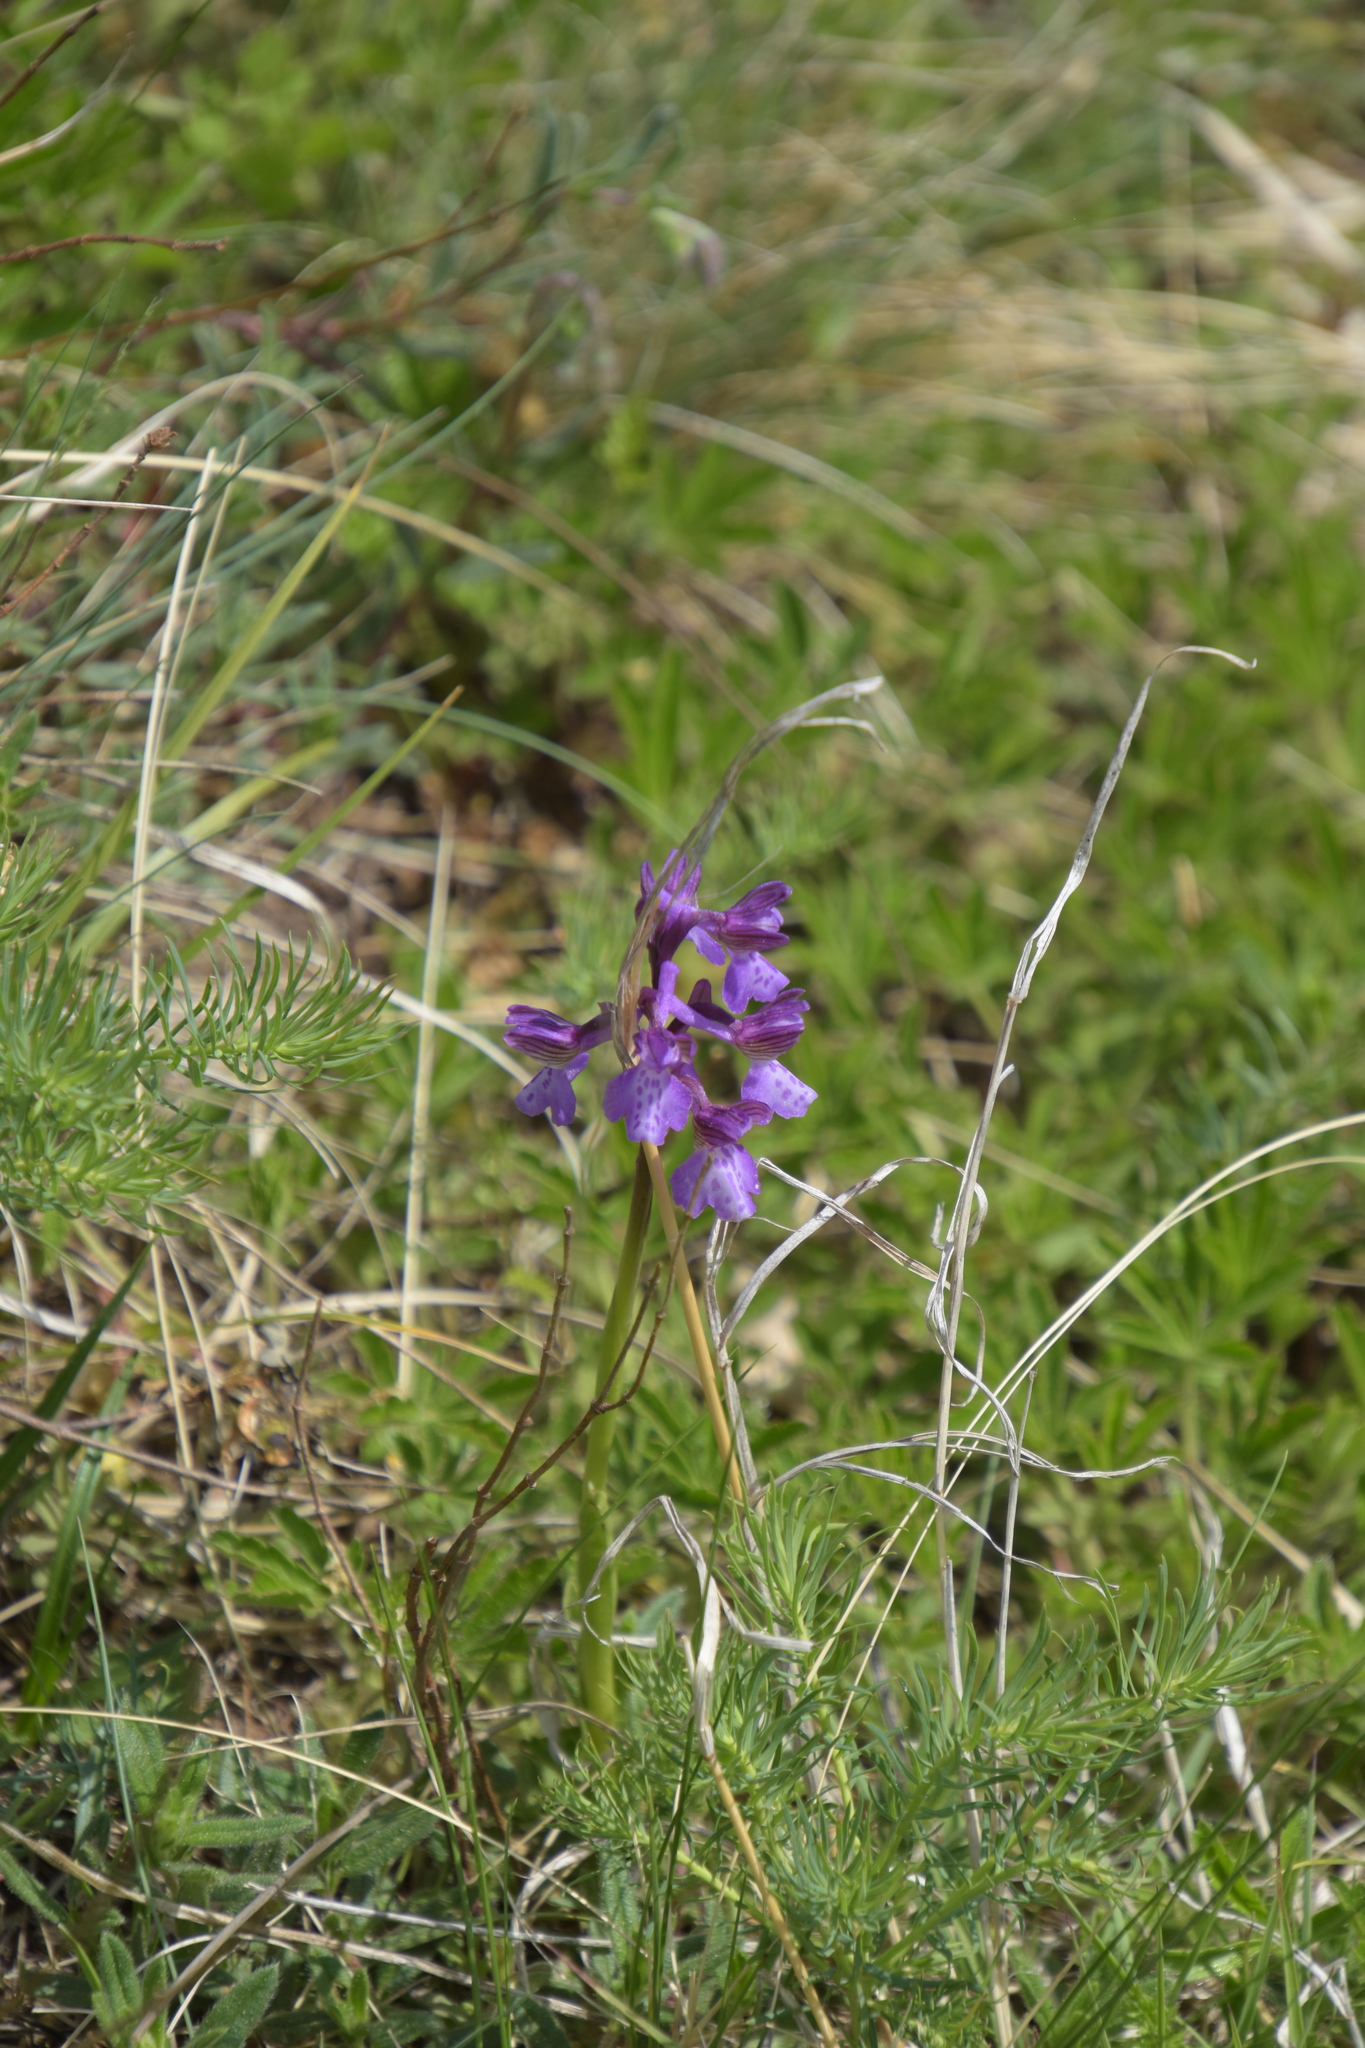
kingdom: Plantae
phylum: Tracheophyta
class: Liliopsida
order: Asparagales
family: Orchidaceae
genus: Anacamptis
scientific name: Anacamptis morio
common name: Green-winged orchid
